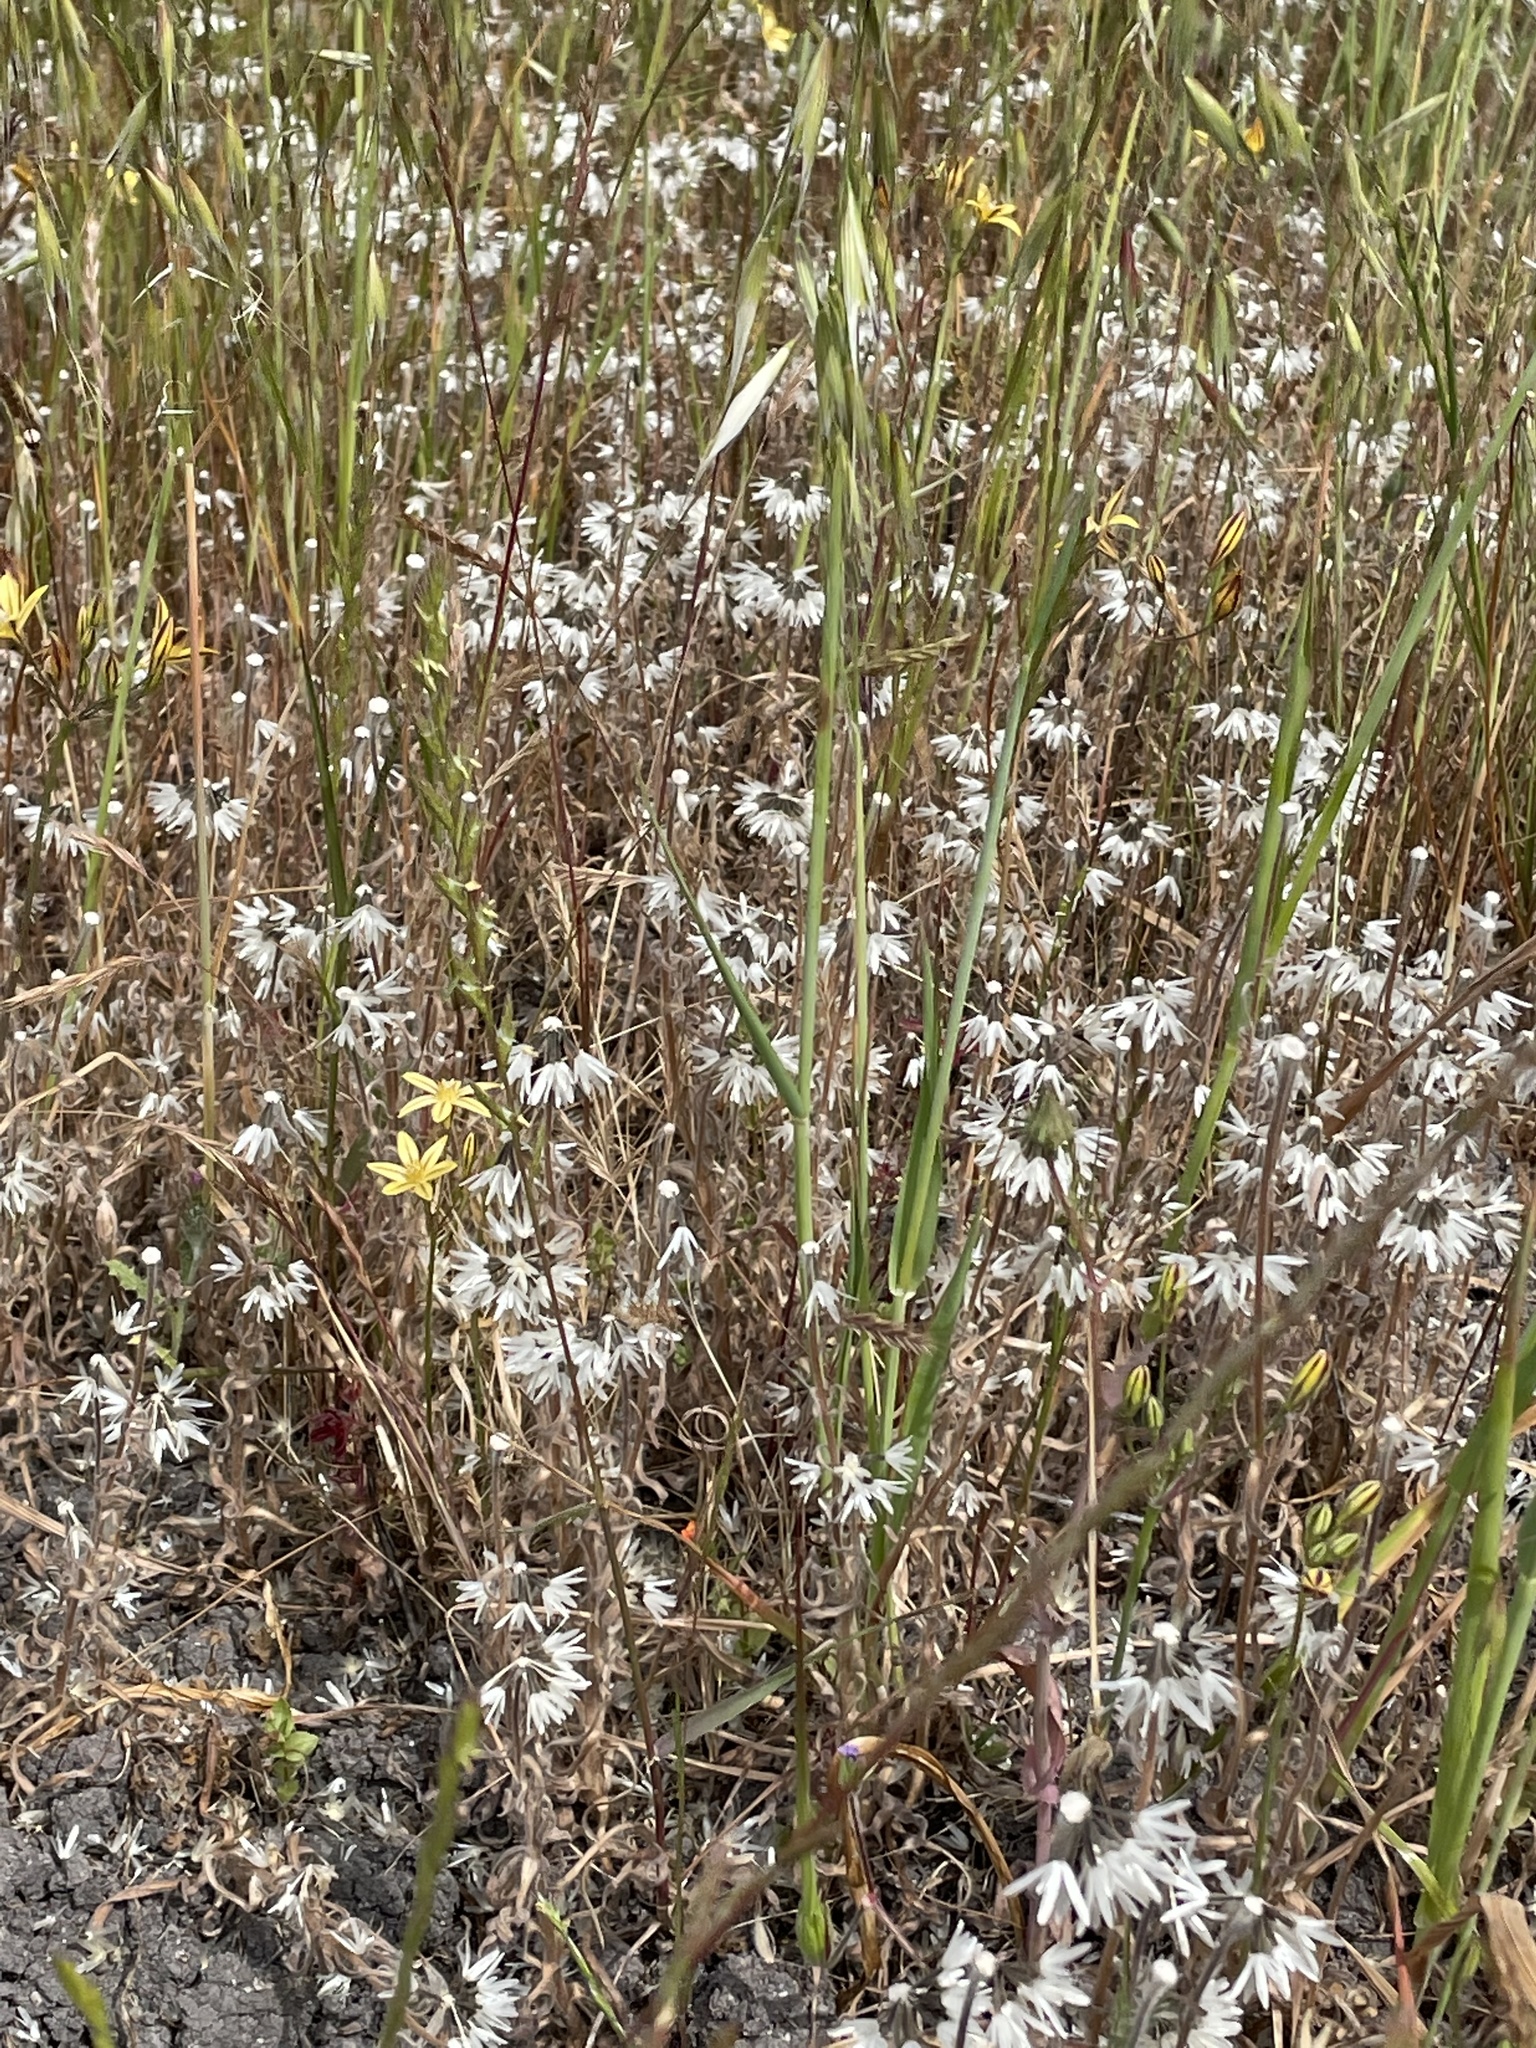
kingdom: Plantae
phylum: Tracheophyta
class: Magnoliopsida
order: Asterales
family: Asteraceae
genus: Achyrachaena
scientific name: Achyrachaena mollis
